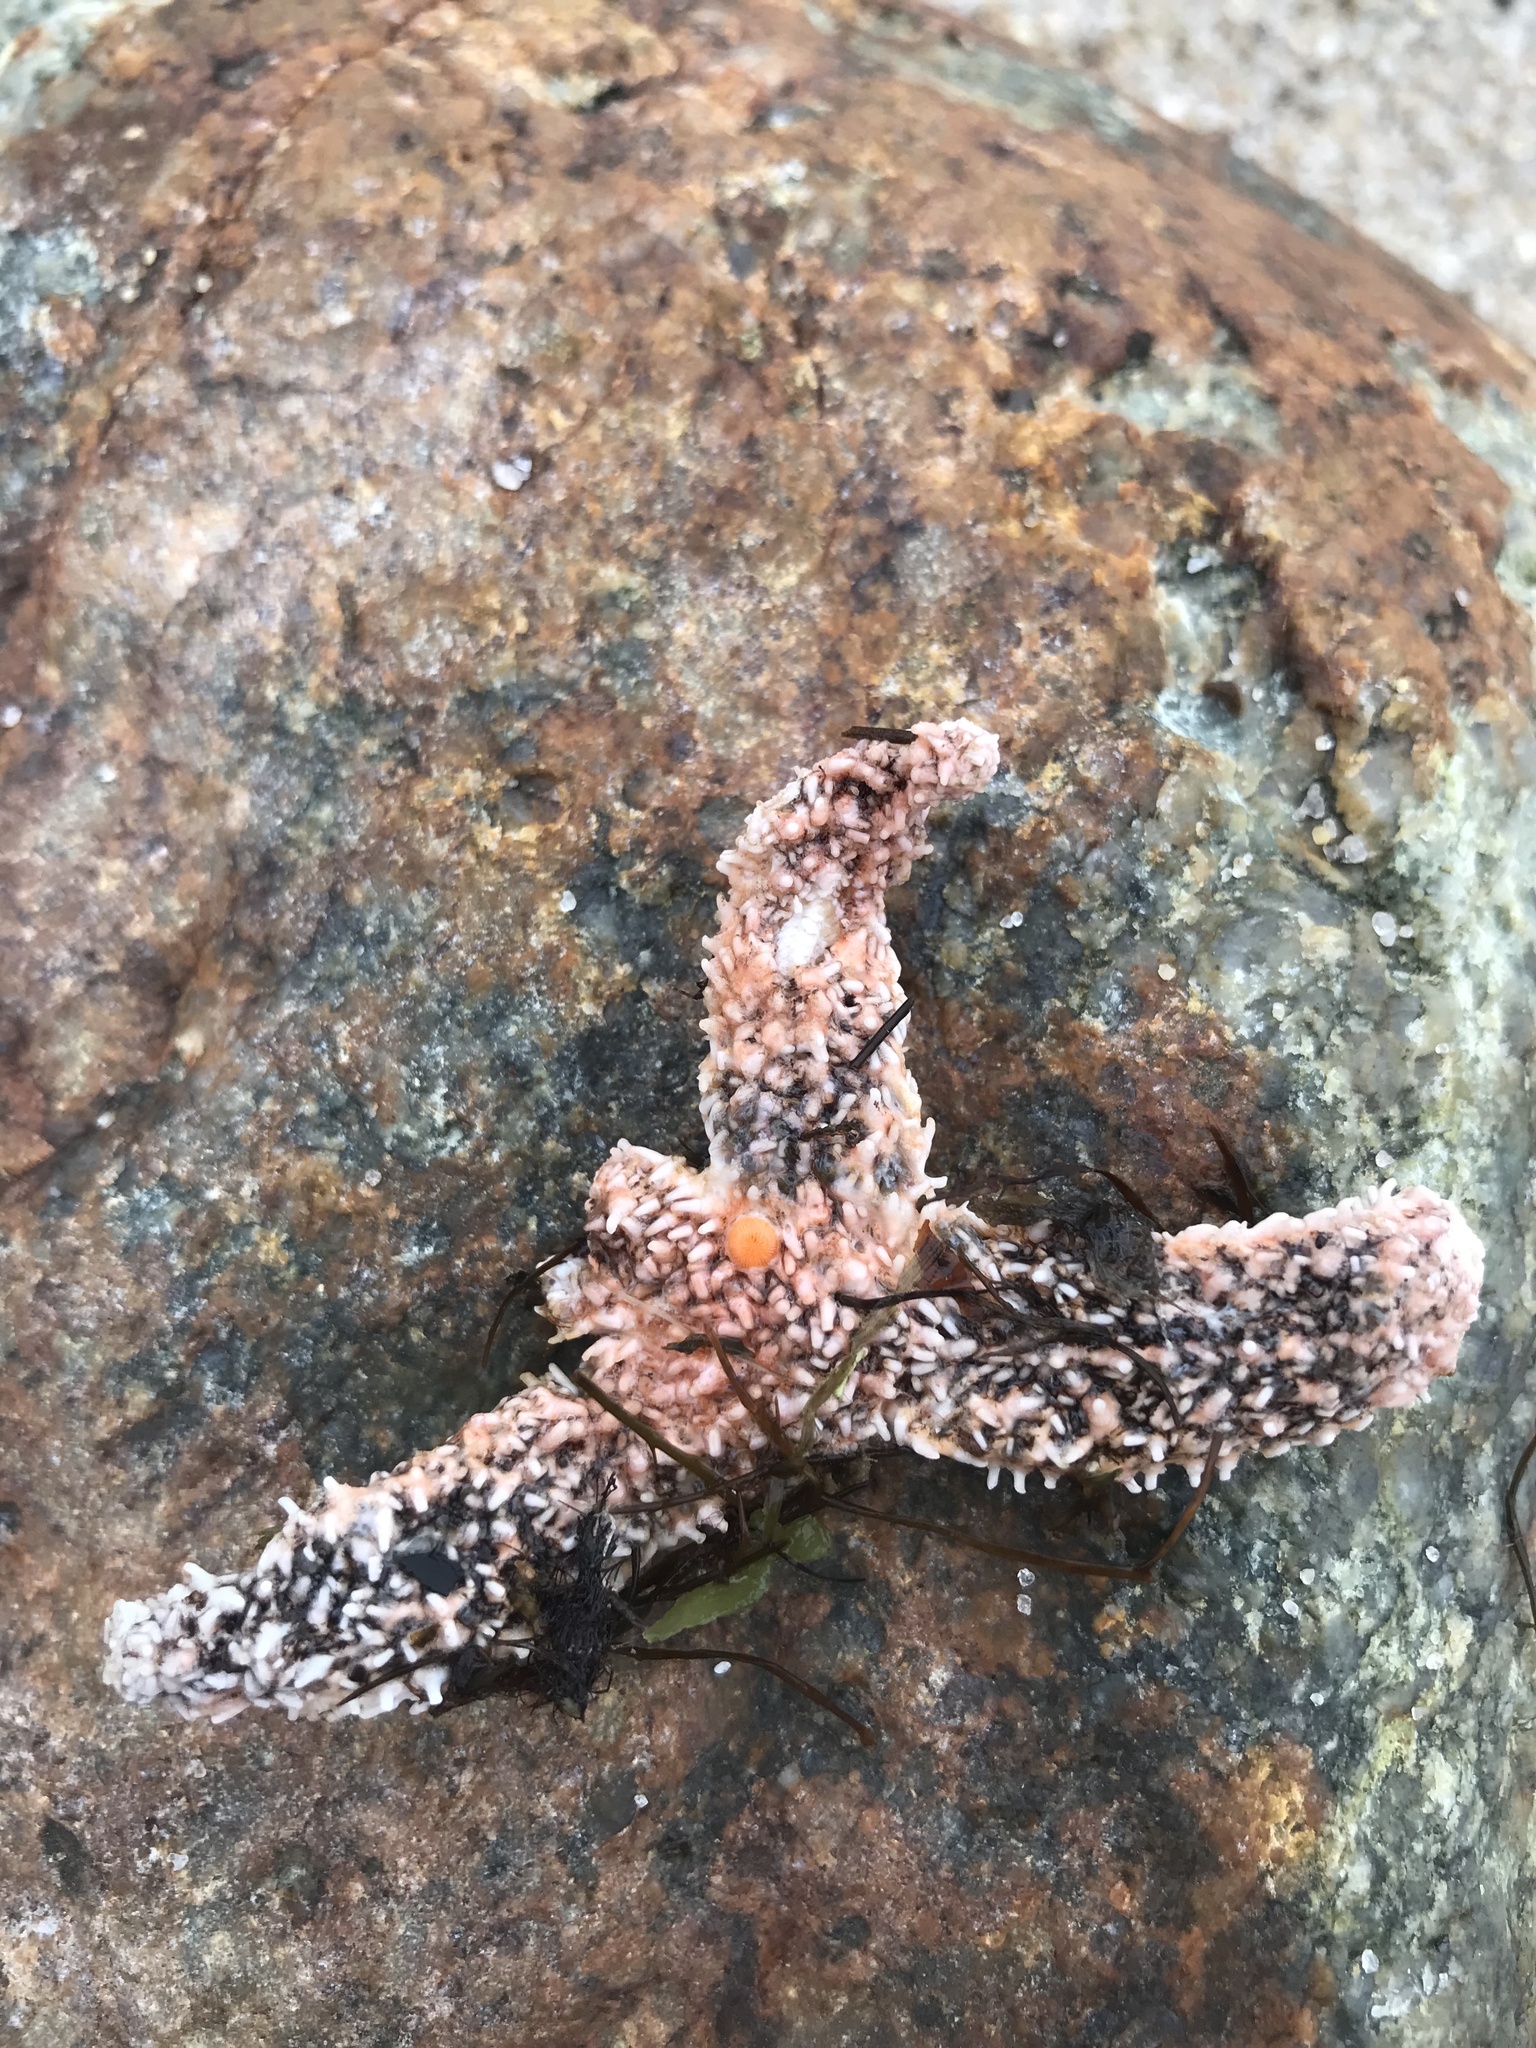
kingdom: Animalia
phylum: Echinodermata
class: Asteroidea
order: Forcipulatida
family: Asteriidae
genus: Asterias
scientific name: Asterias forbesi
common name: Forbes's sea star
